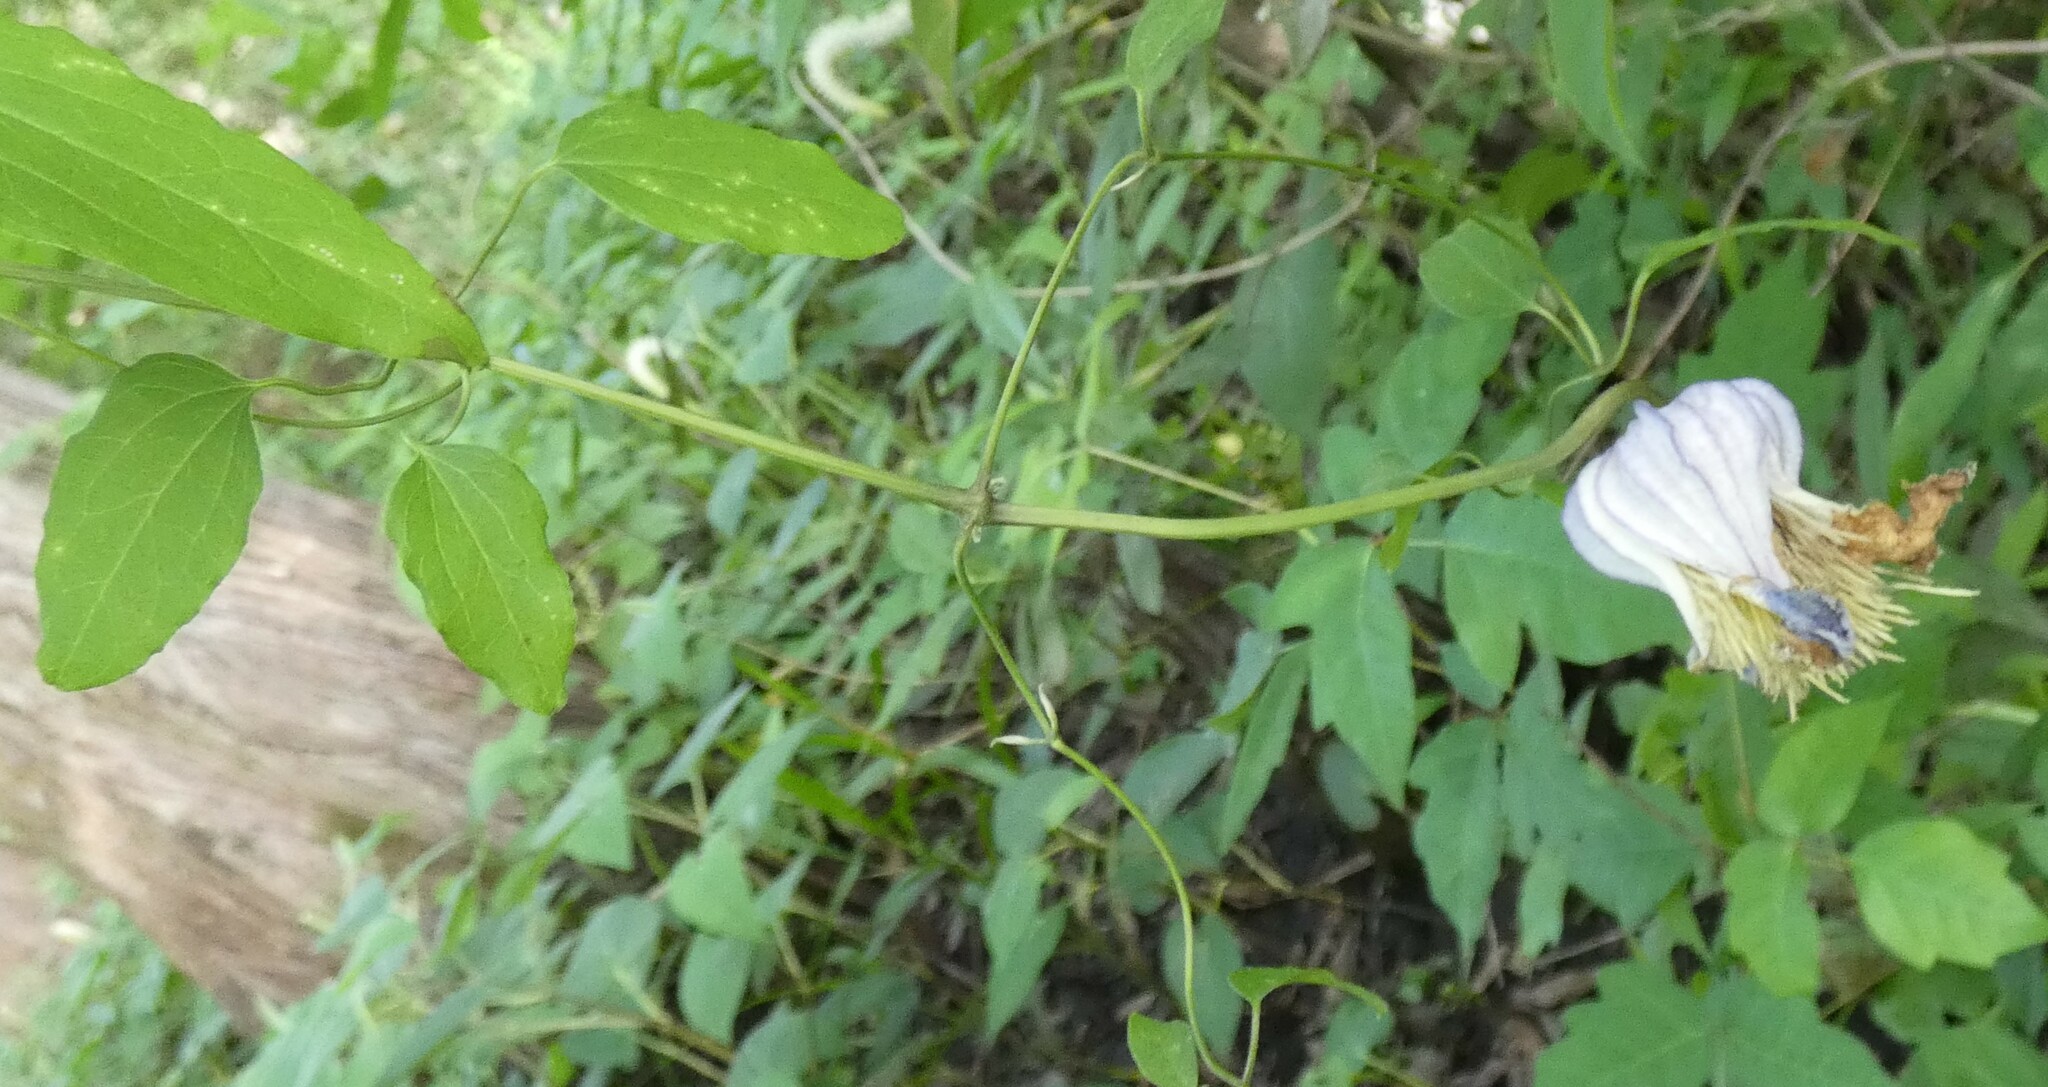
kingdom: Plantae
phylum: Tracheophyta
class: Magnoliopsida
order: Ranunculales
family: Ranunculaceae
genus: Clematis
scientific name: Clematis crispa
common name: Curly clematis
